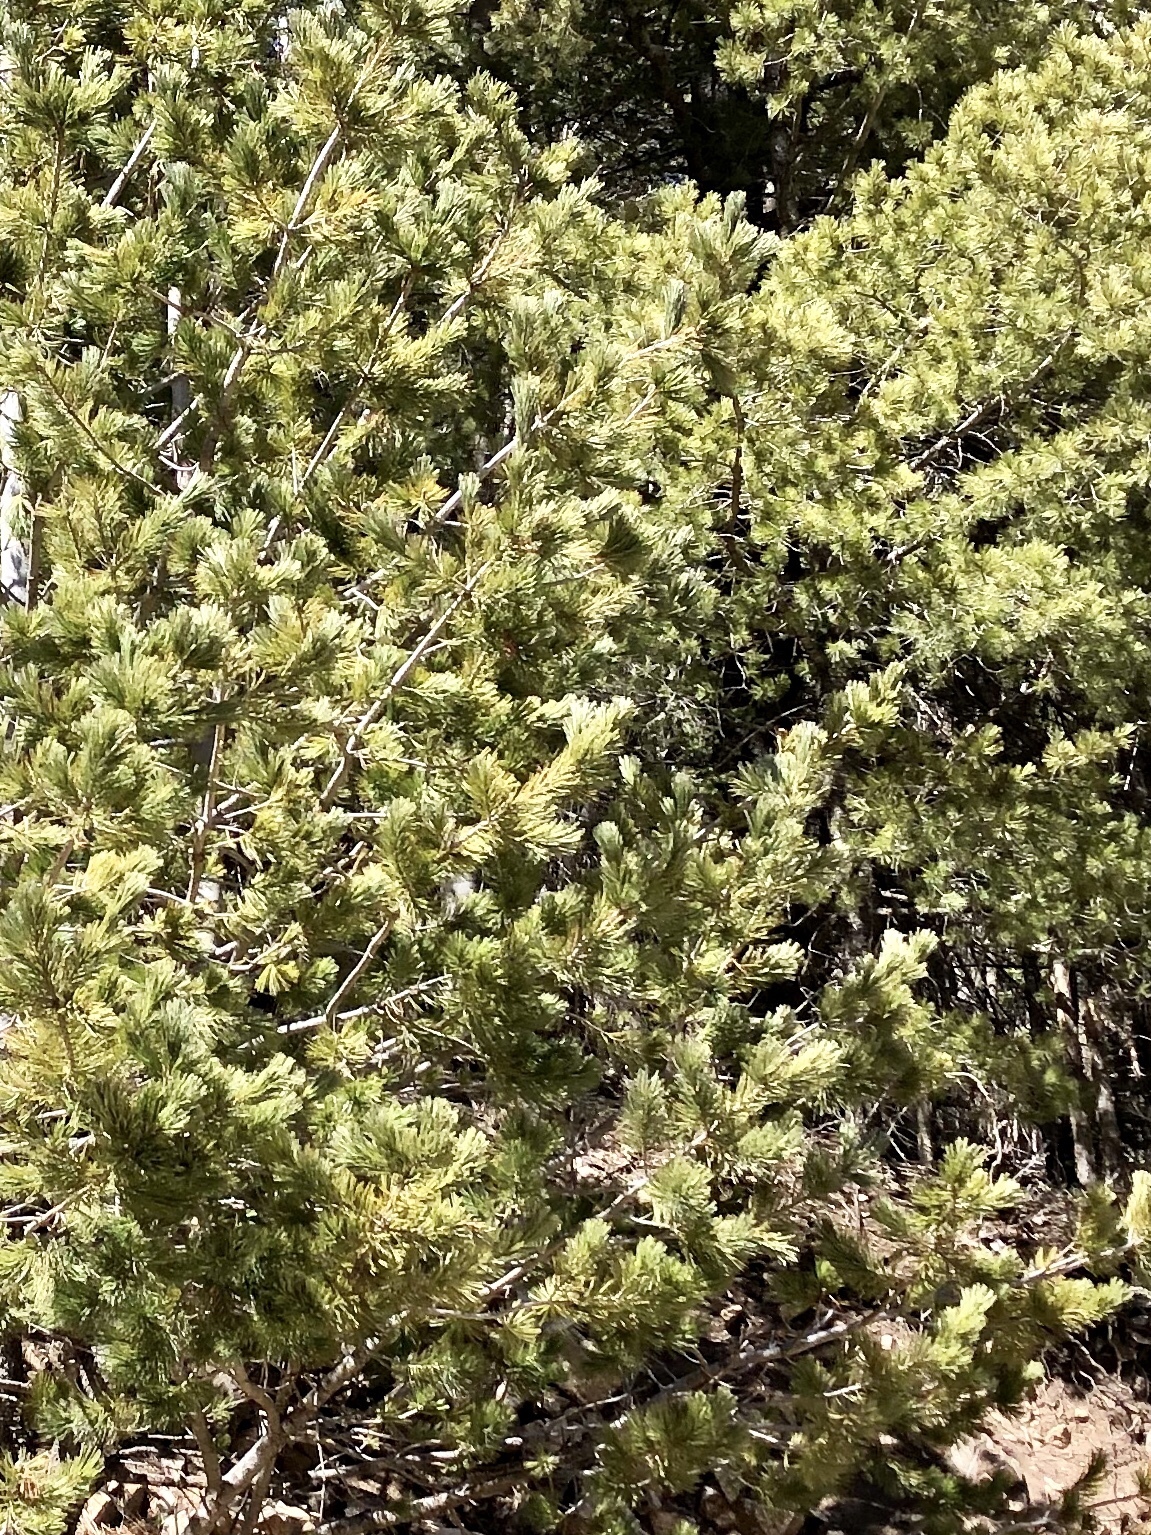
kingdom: Plantae
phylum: Tracheophyta
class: Pinopsida
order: Pinales
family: Pinaceae
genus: Pinus
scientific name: Pinus strobiformis
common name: Southwestern white pine
